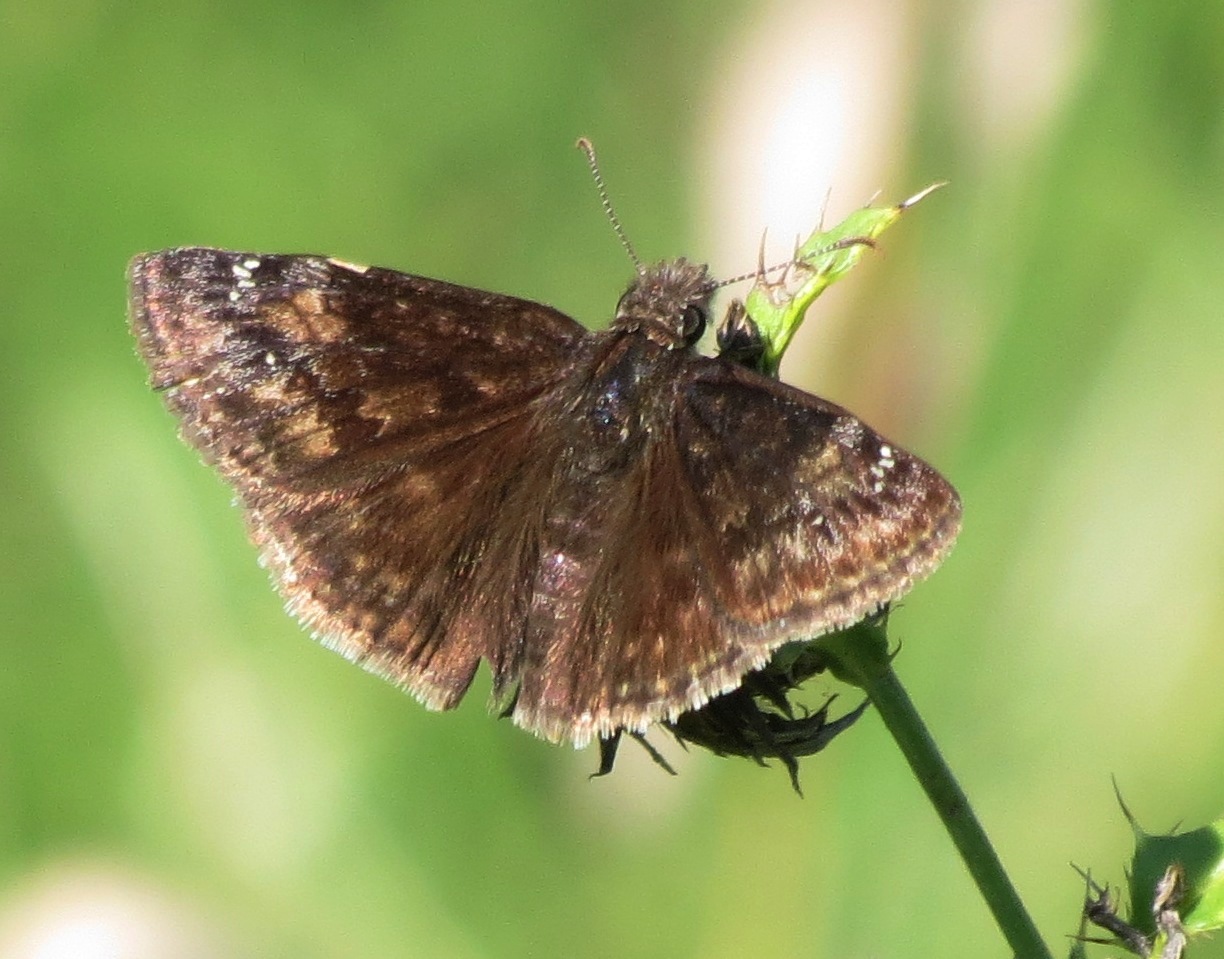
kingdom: Animalia
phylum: Arthropoda
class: Insecta
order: Lepidoptera
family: Hesperiidae
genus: Erynnis
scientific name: Erynnis baptisiae
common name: Wild indigo duskywing
